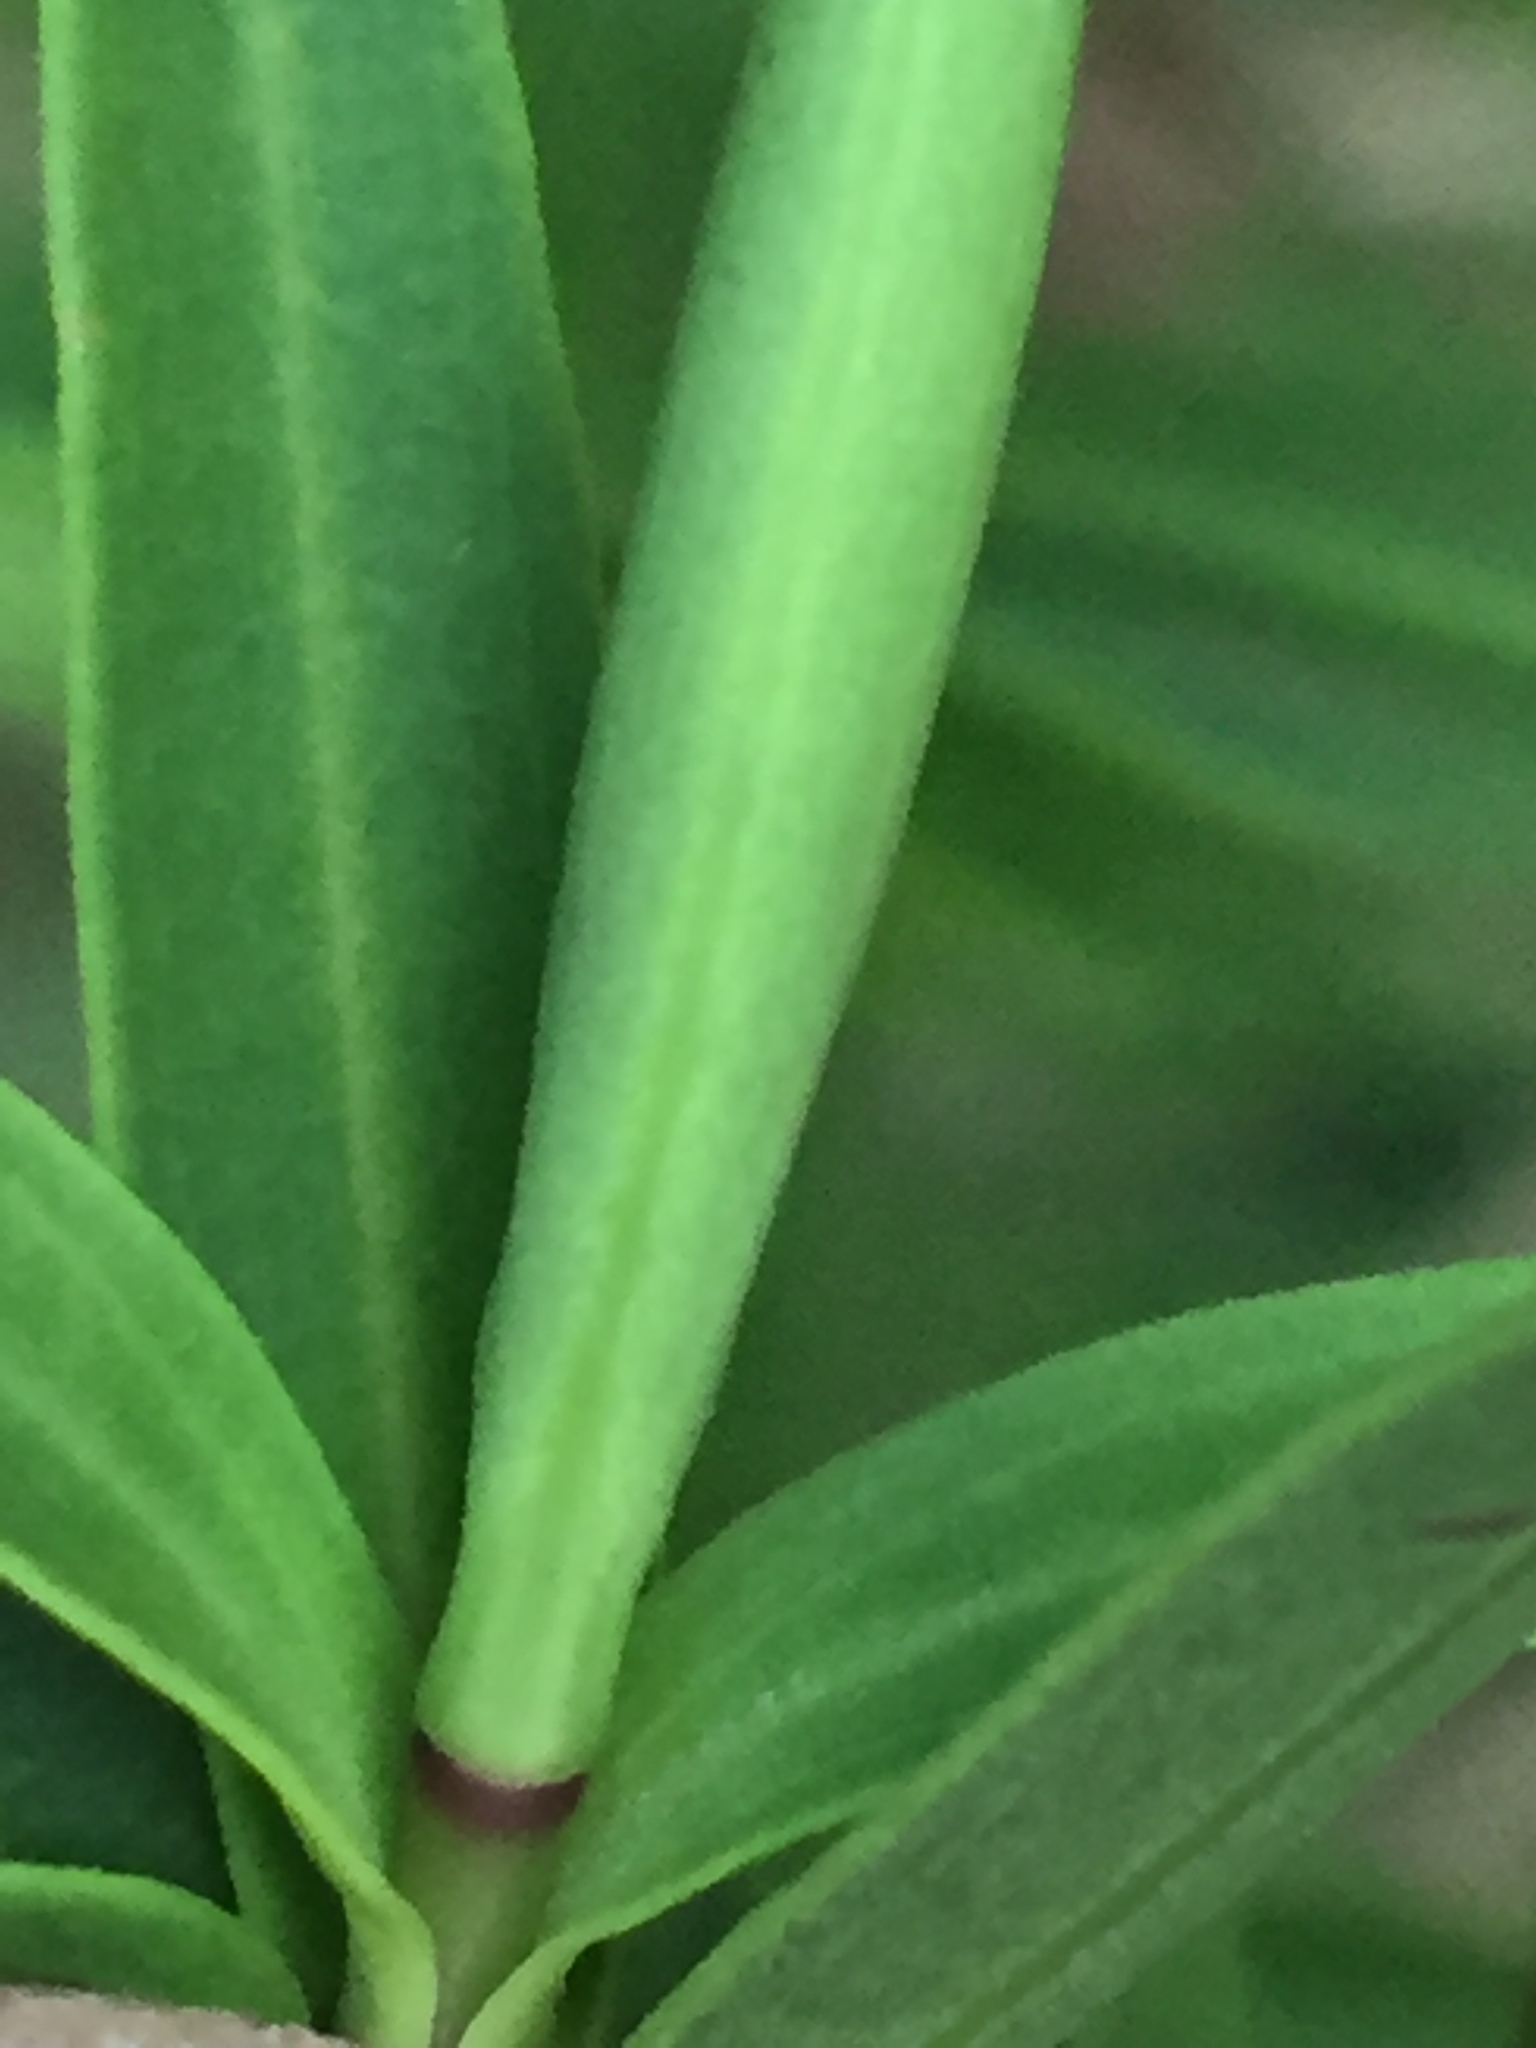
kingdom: Plantae
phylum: Tracheophyta
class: Magnoliopsida
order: Lamiales
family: Plantaginaceae
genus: Veronica
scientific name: Veronica strictissima
